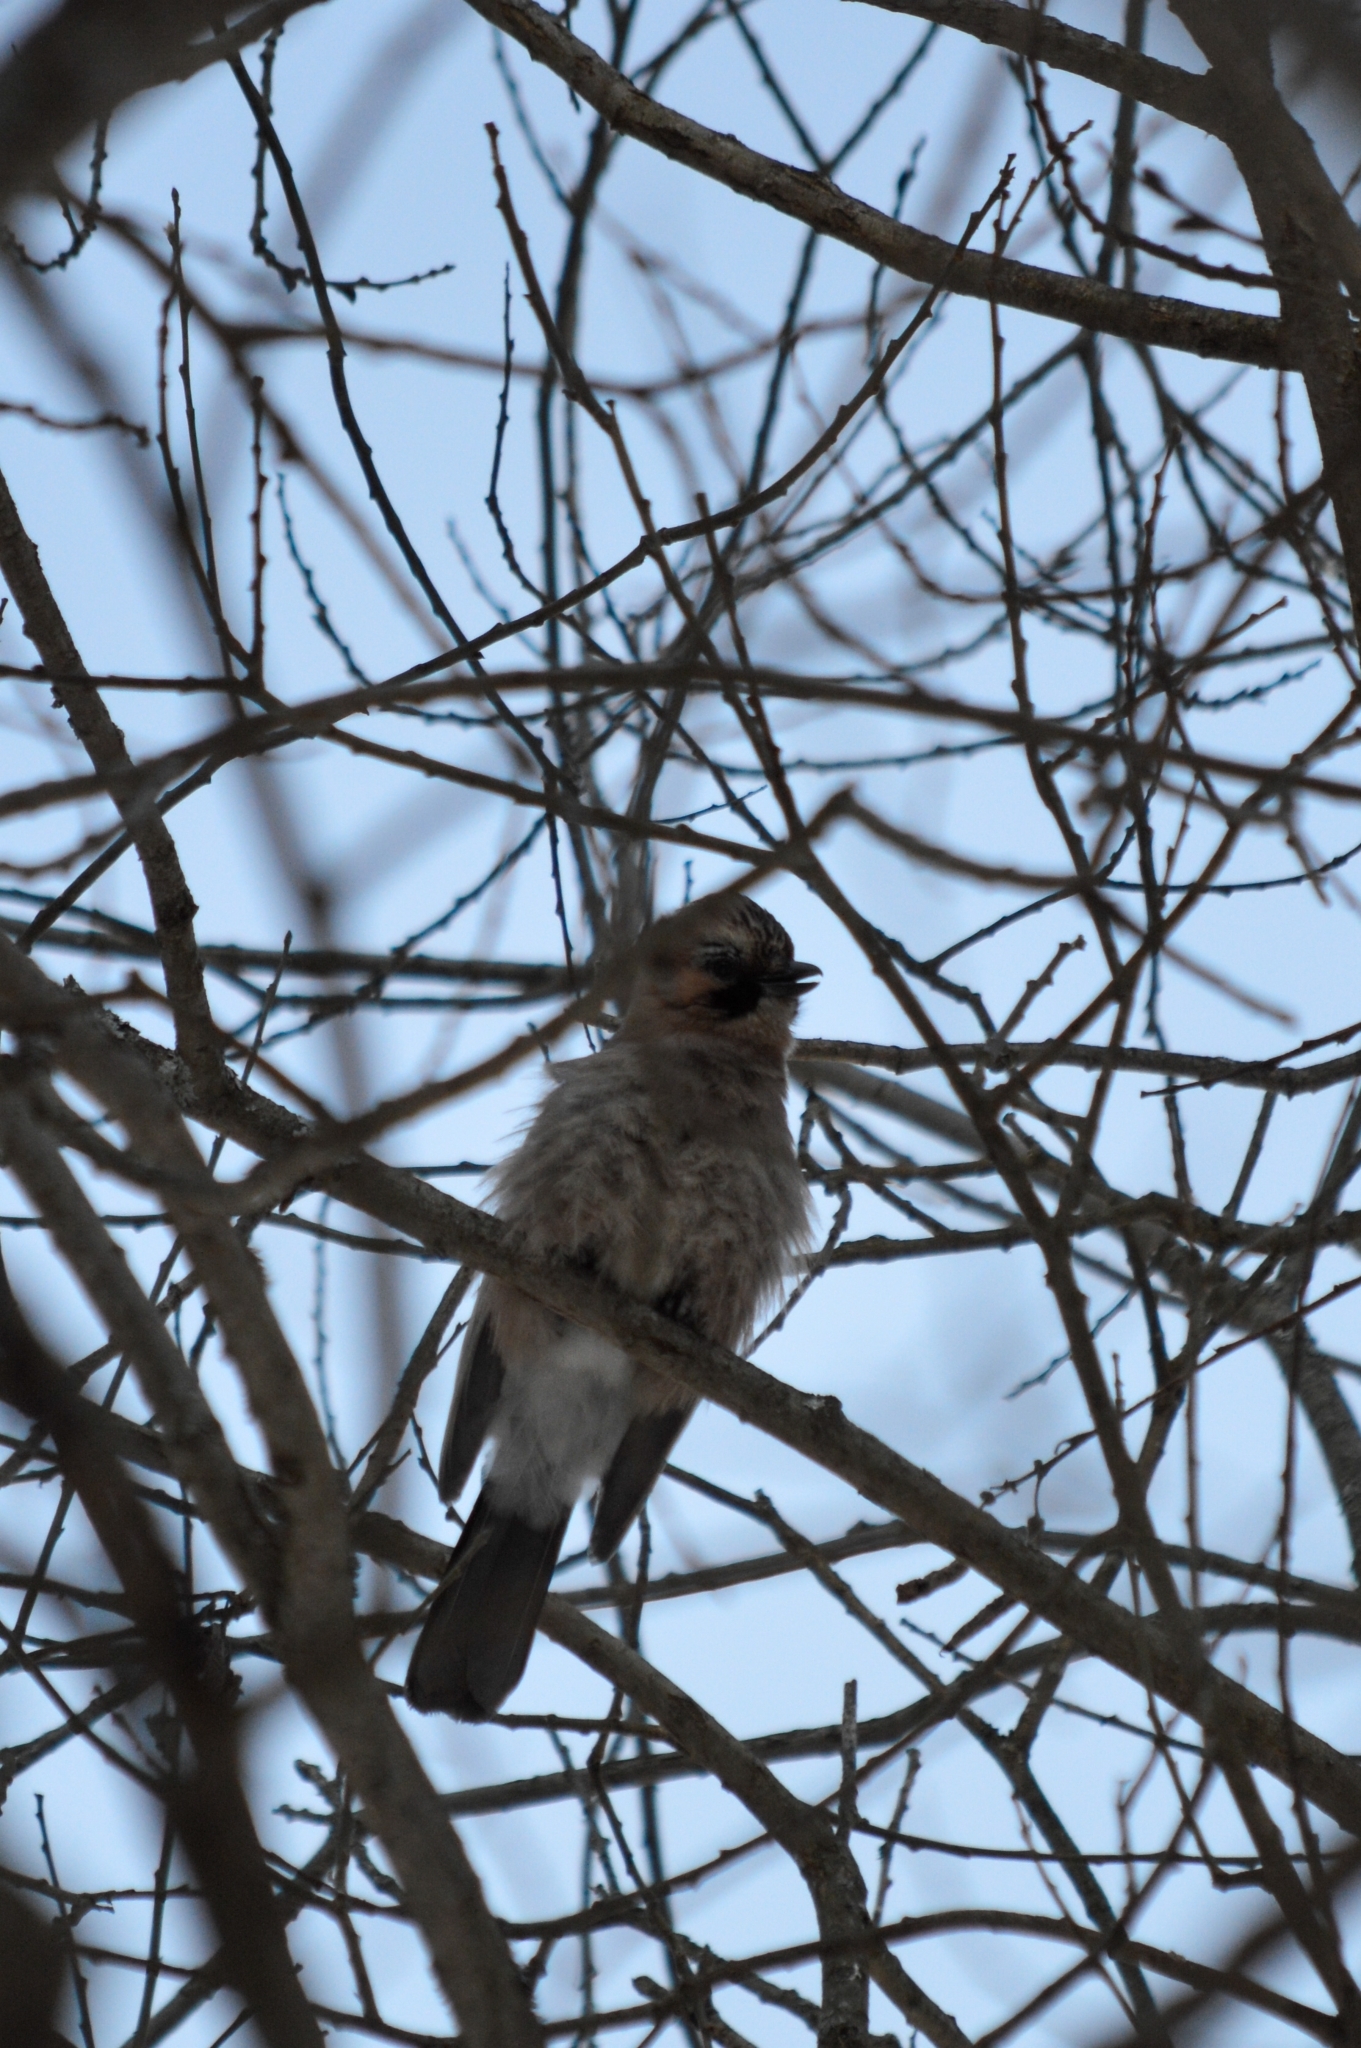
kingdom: Animalia
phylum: Chordata
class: Aves
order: Passeriformes
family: Corvidae
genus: Garrulus
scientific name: Garrulus glandarius
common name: Eurasian jay
